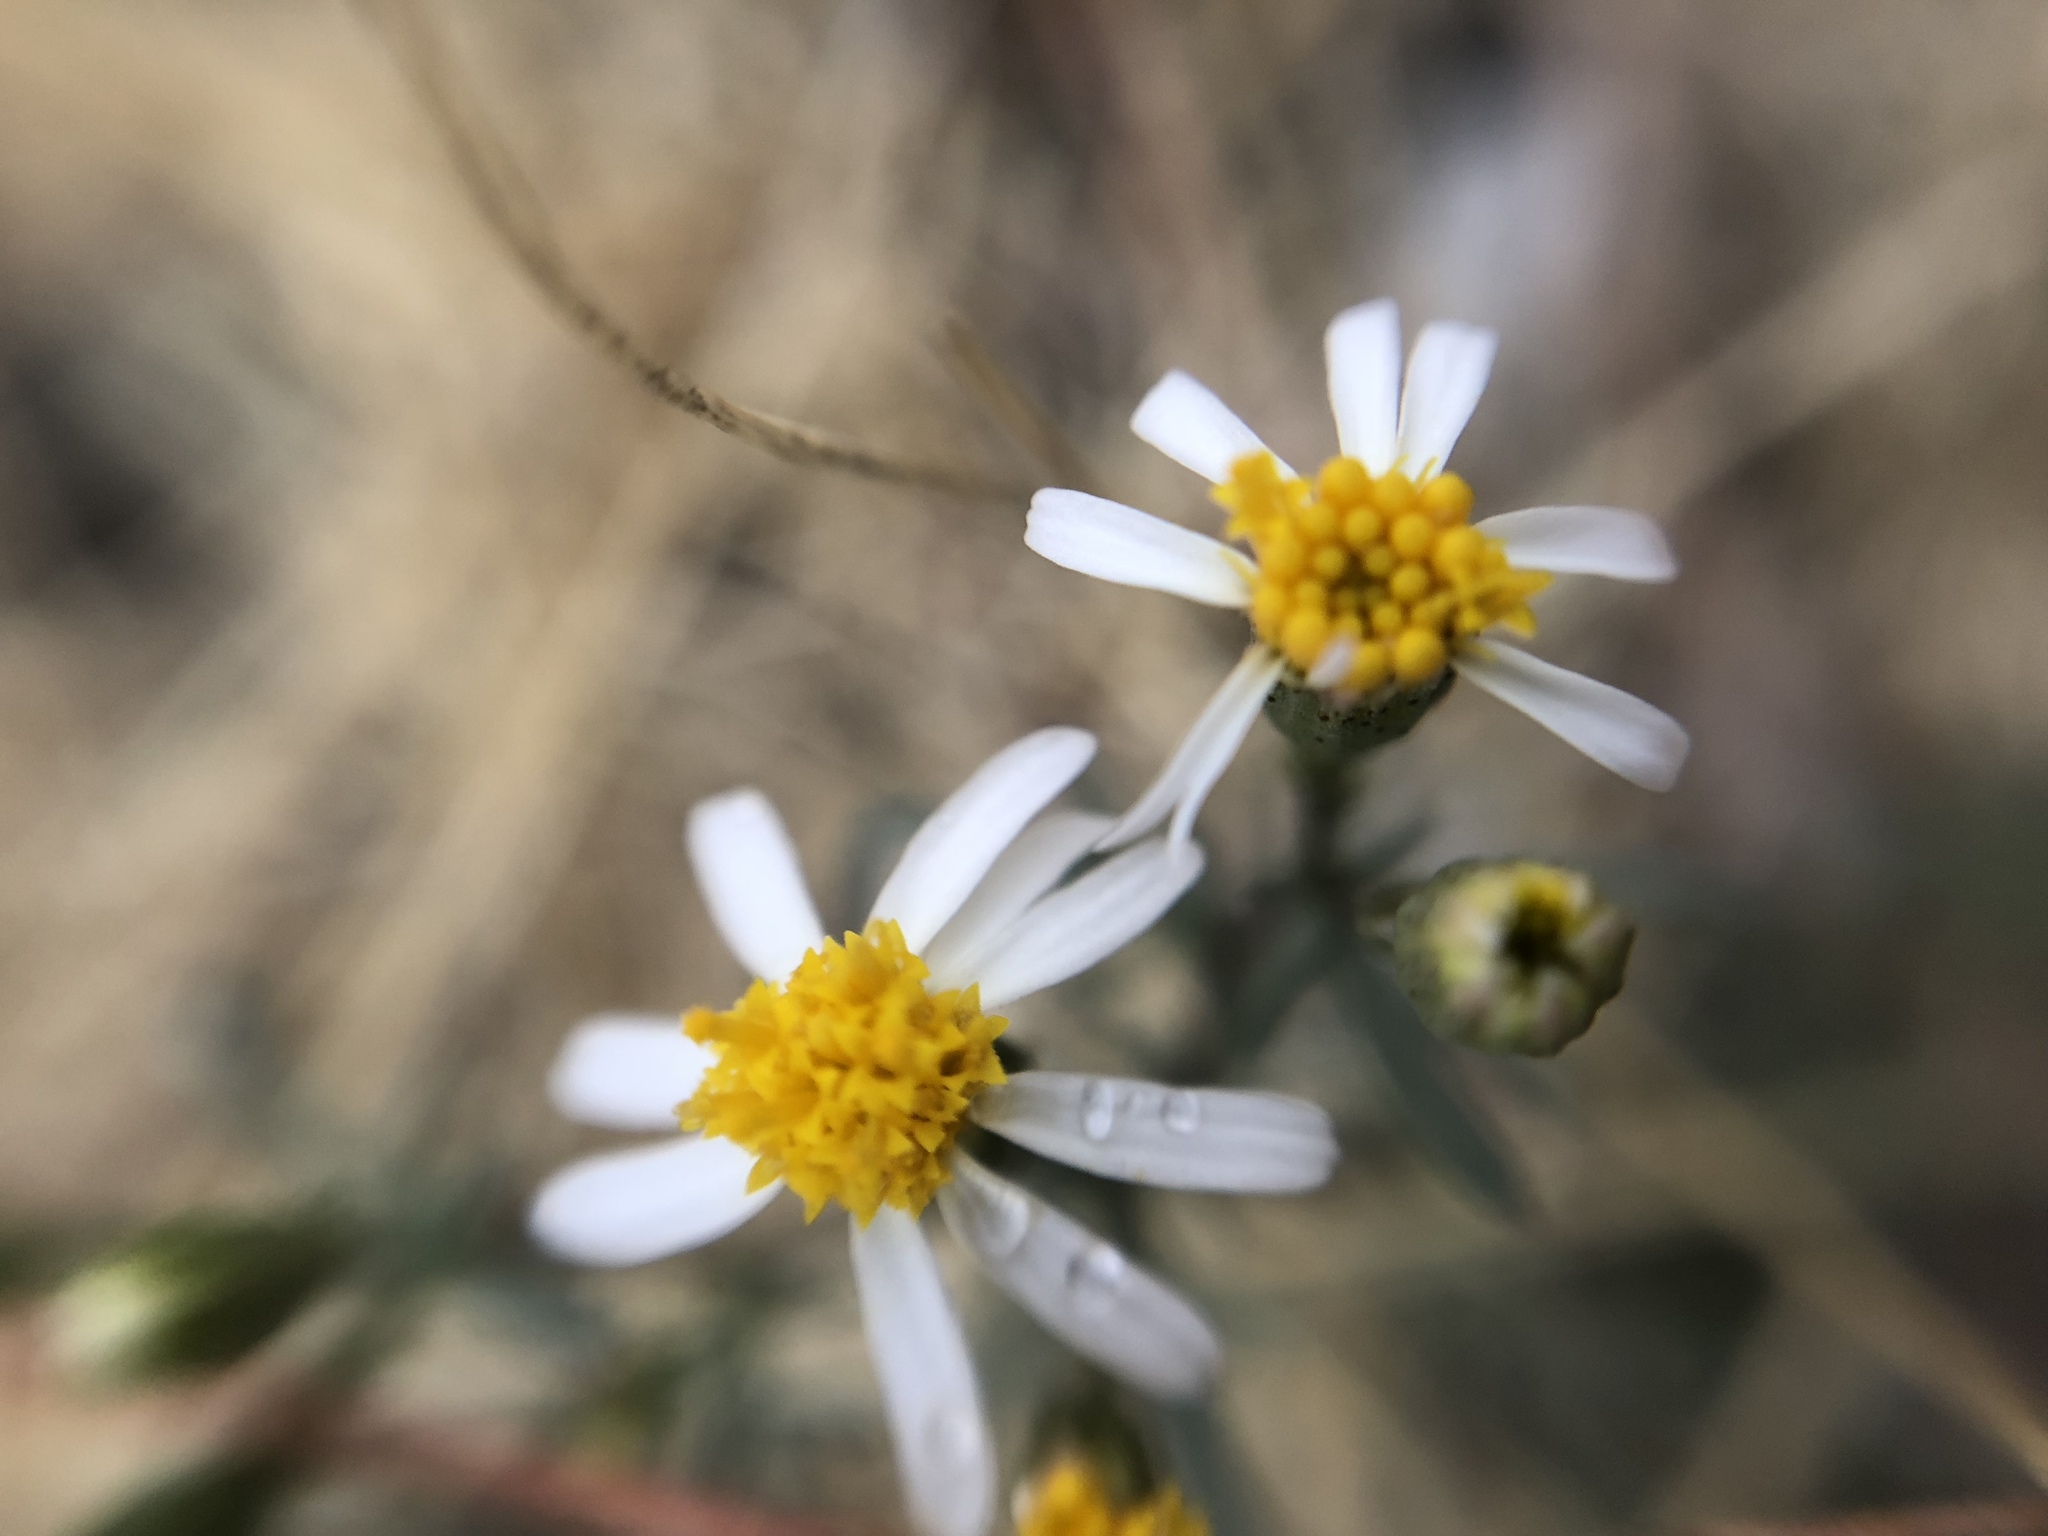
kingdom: Plantae
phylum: Tracheophyta
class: Magnoliopsida
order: Asterales
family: Asteraceae
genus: Thymophylla
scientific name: Thymophylla concinna
